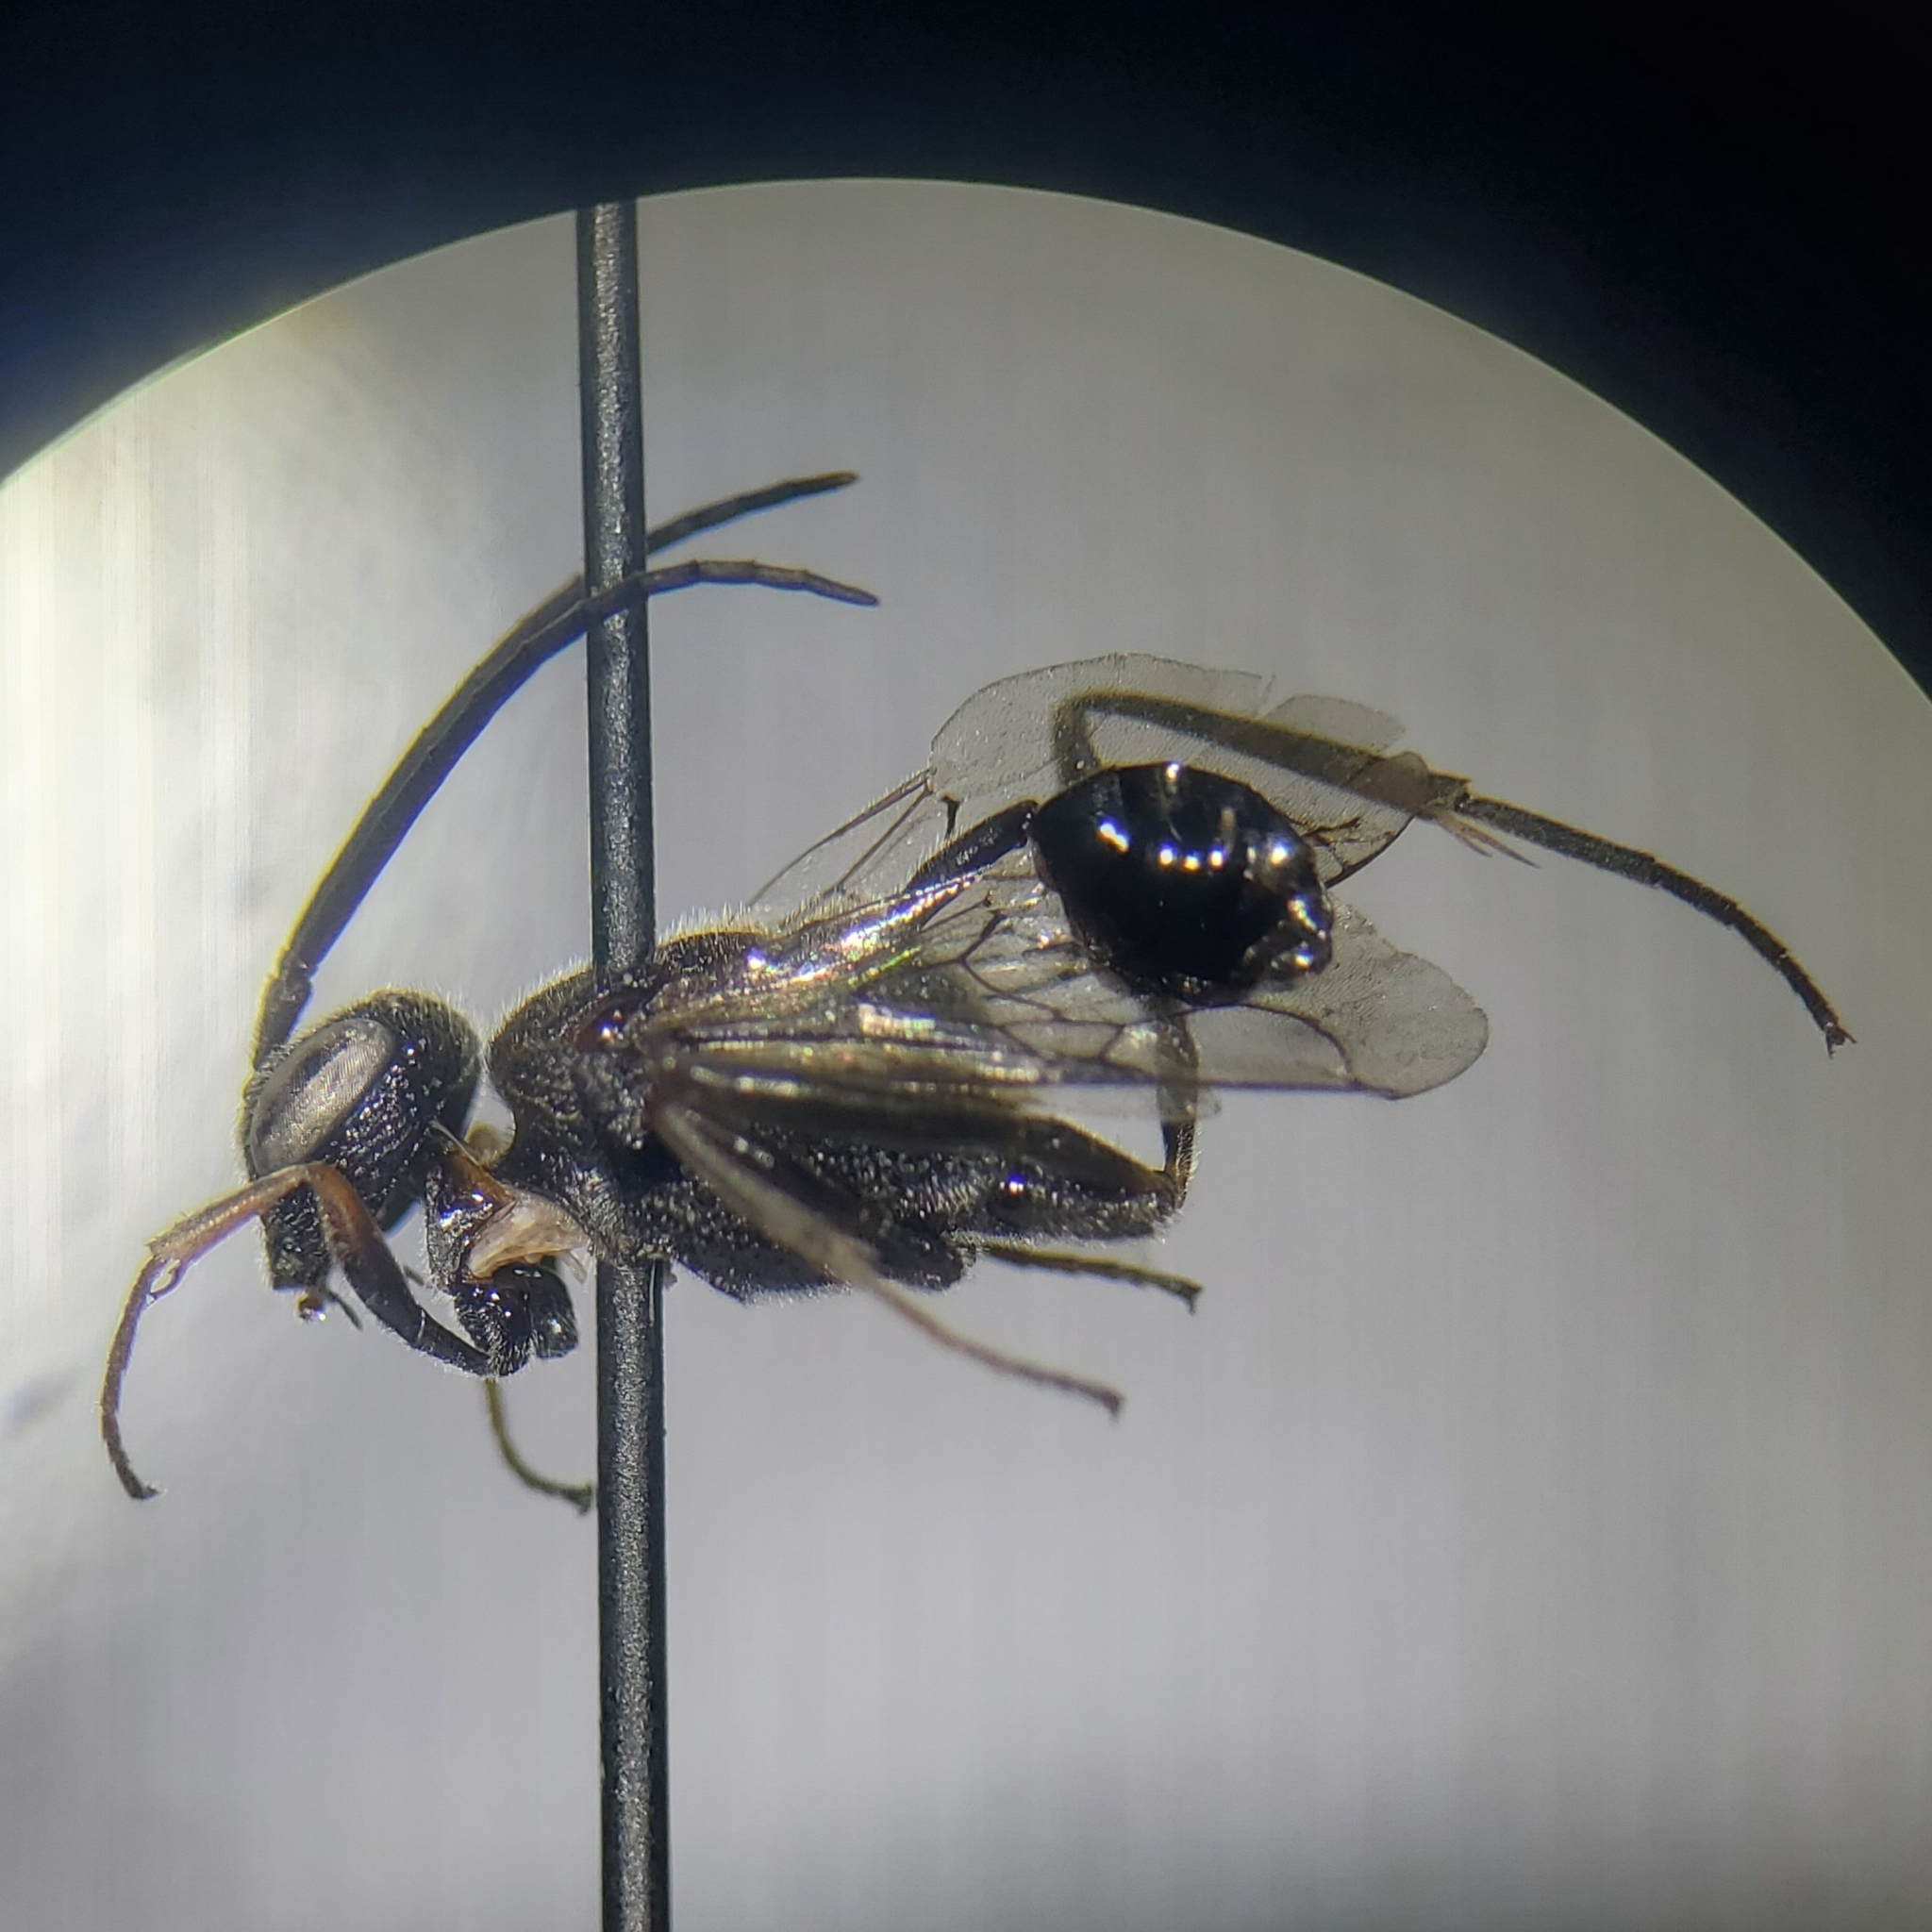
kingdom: Animalia
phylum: Arthropoda
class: Insecta
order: Hymenoptera
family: Evaniidae
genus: Evaniella
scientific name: Evaniella semaeoda
